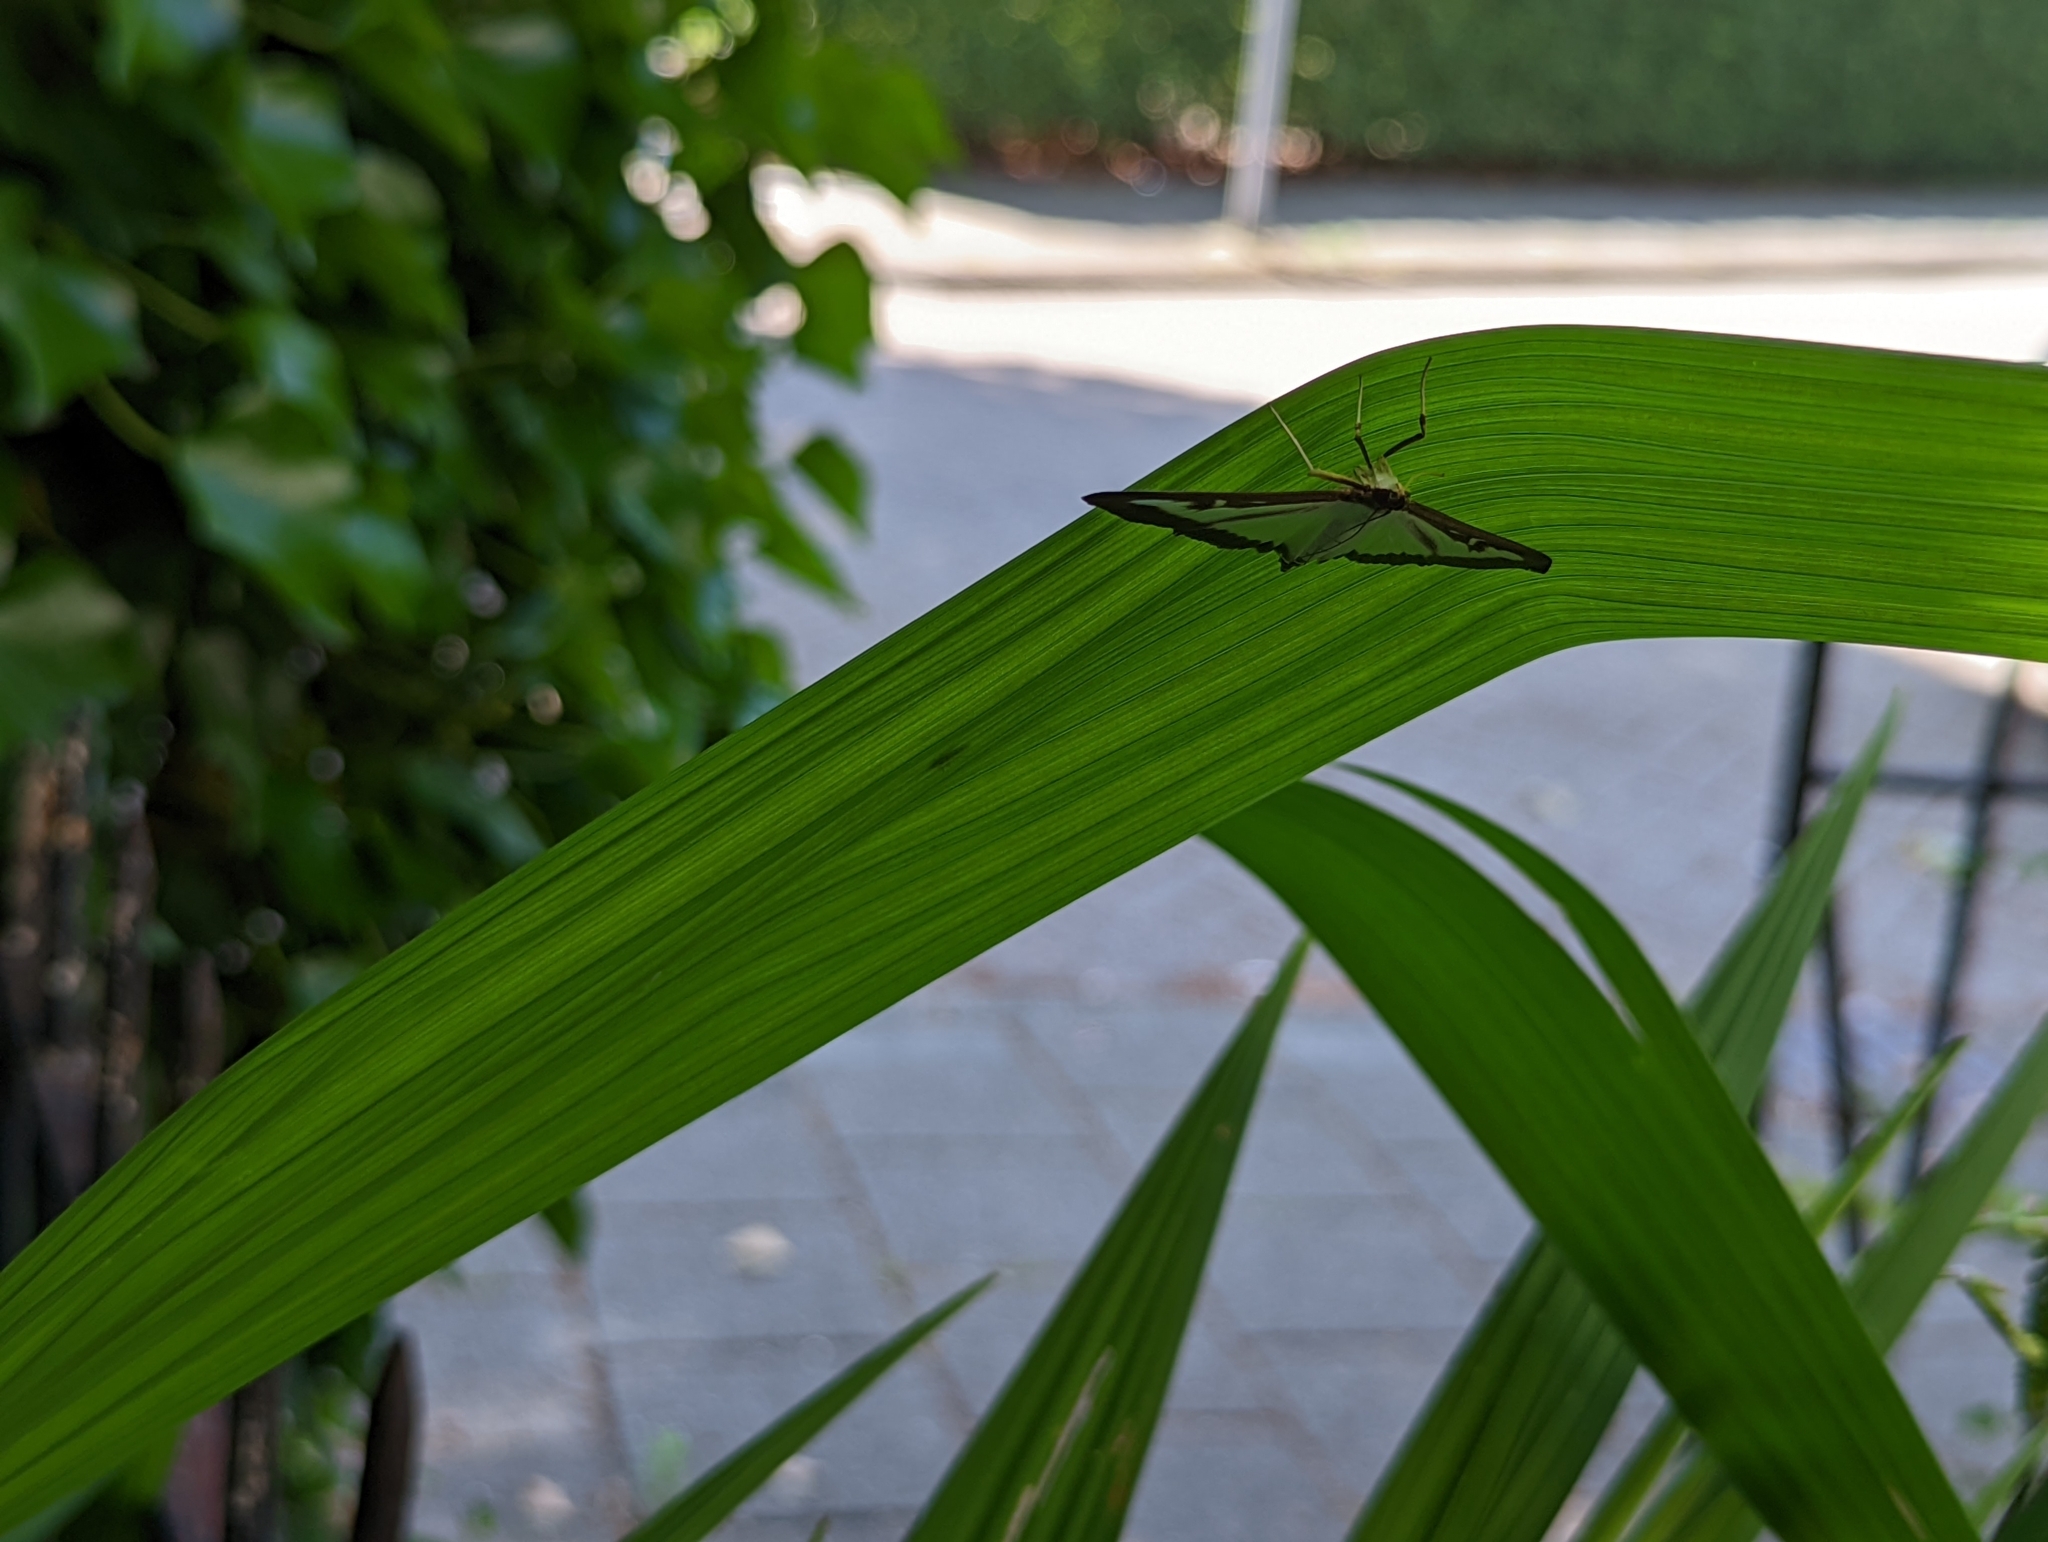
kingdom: Animalia
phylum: Arthropoda
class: Insecta
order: Lepidoptera
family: Crambidae
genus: Cydalima
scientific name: Cydalima perspectalis
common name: Box tree moth
